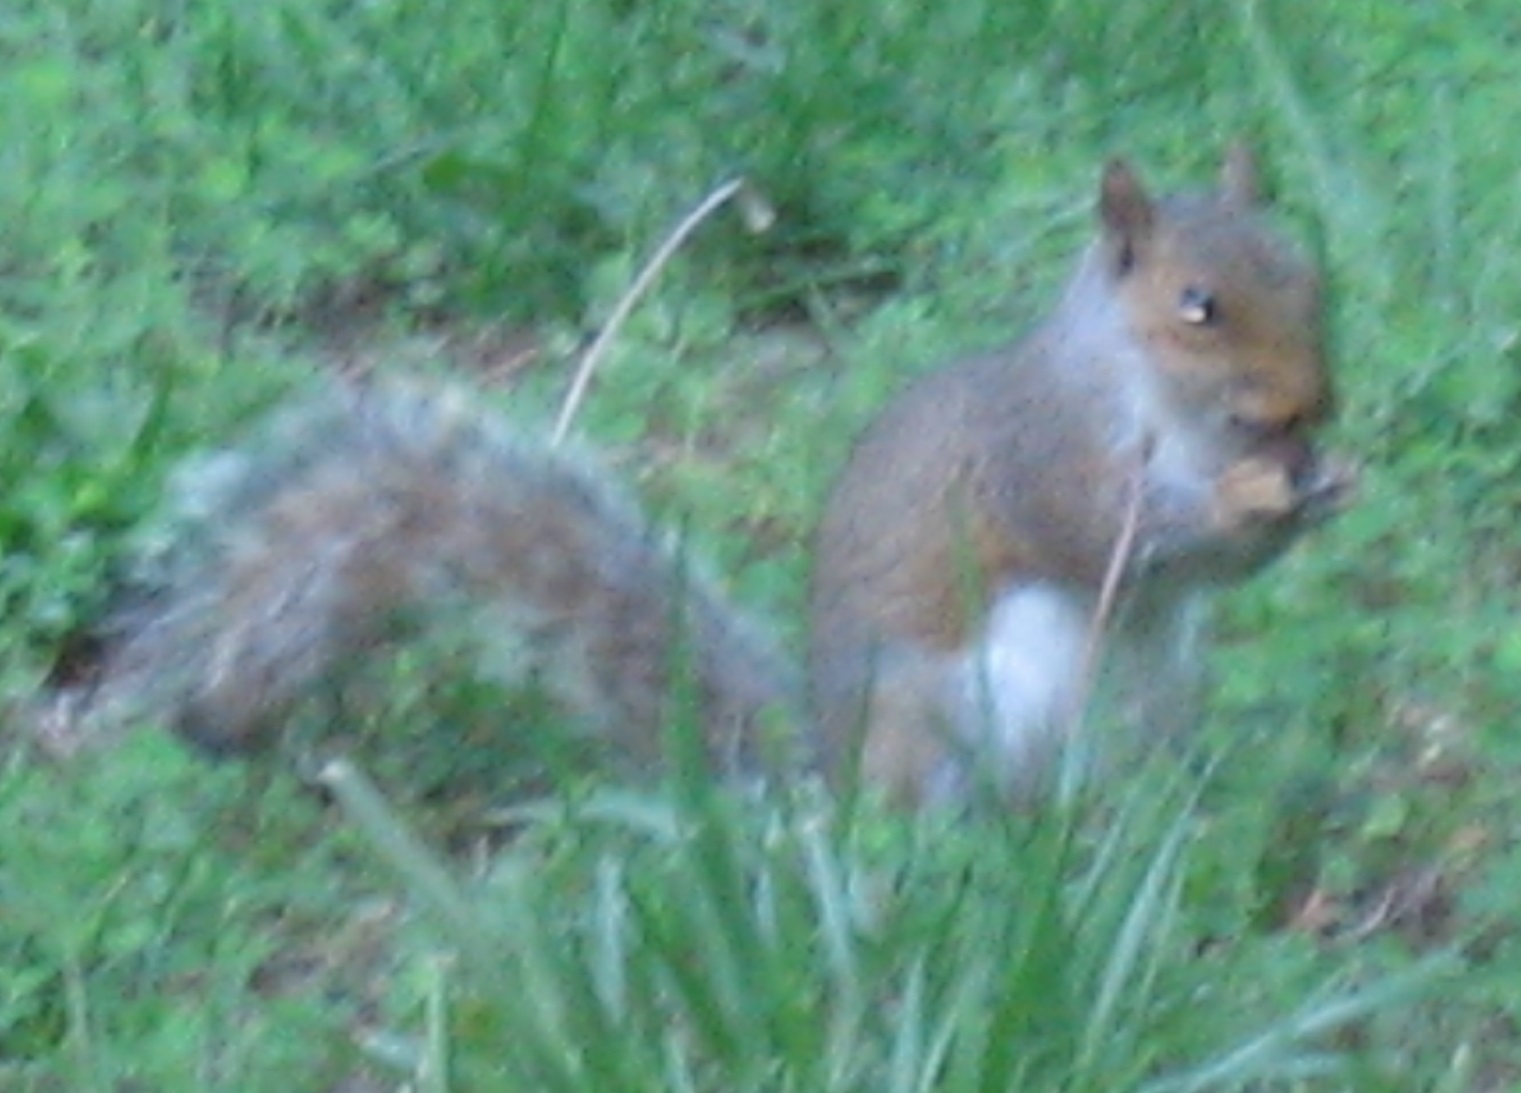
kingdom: Animalia
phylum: Chordata
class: Mammalia
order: Rodentia
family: Sciuridae
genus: Sciurus
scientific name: Sciurus carolinensis
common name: Eastern gray squirrel
